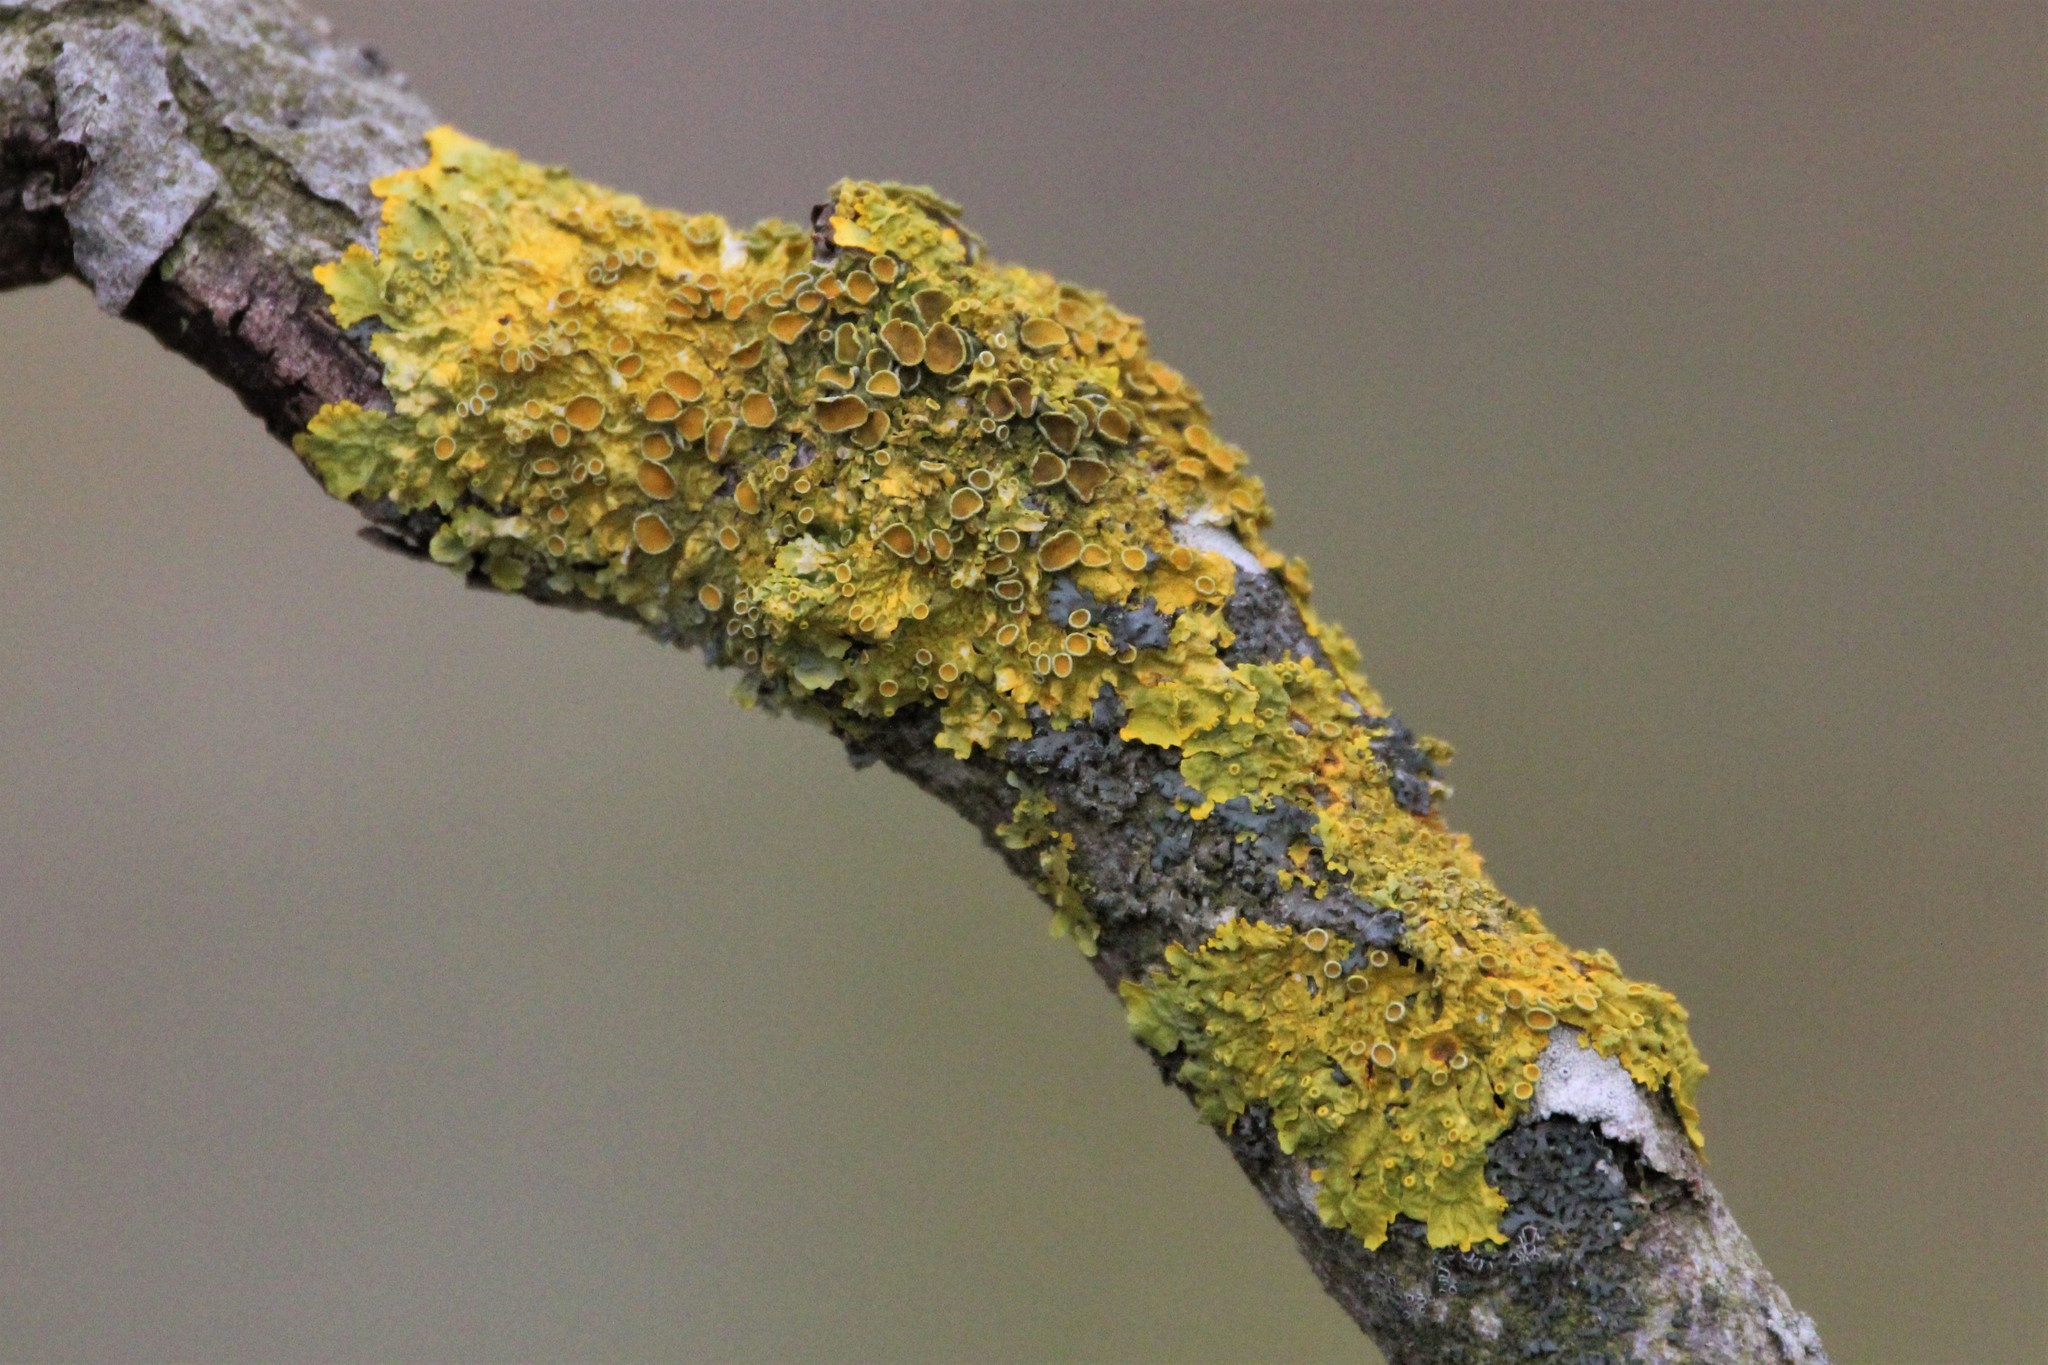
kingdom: Fungi
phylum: Ascomycota
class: Lecanoromycetes
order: Teloschistales
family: Teloschistaceae
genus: Xanthoria
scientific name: Xanthoria parietina
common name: Common orange lichen
